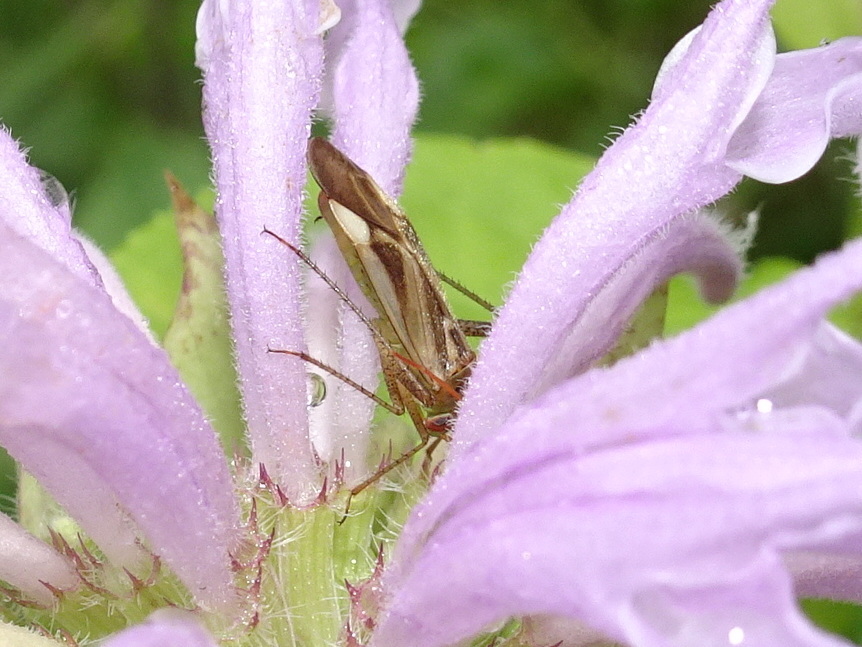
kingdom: Animalia
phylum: Arthropoda
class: Insecta
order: Hemiptera
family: Miridae
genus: Adelphocoris
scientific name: Adelphocoris lineolatus
